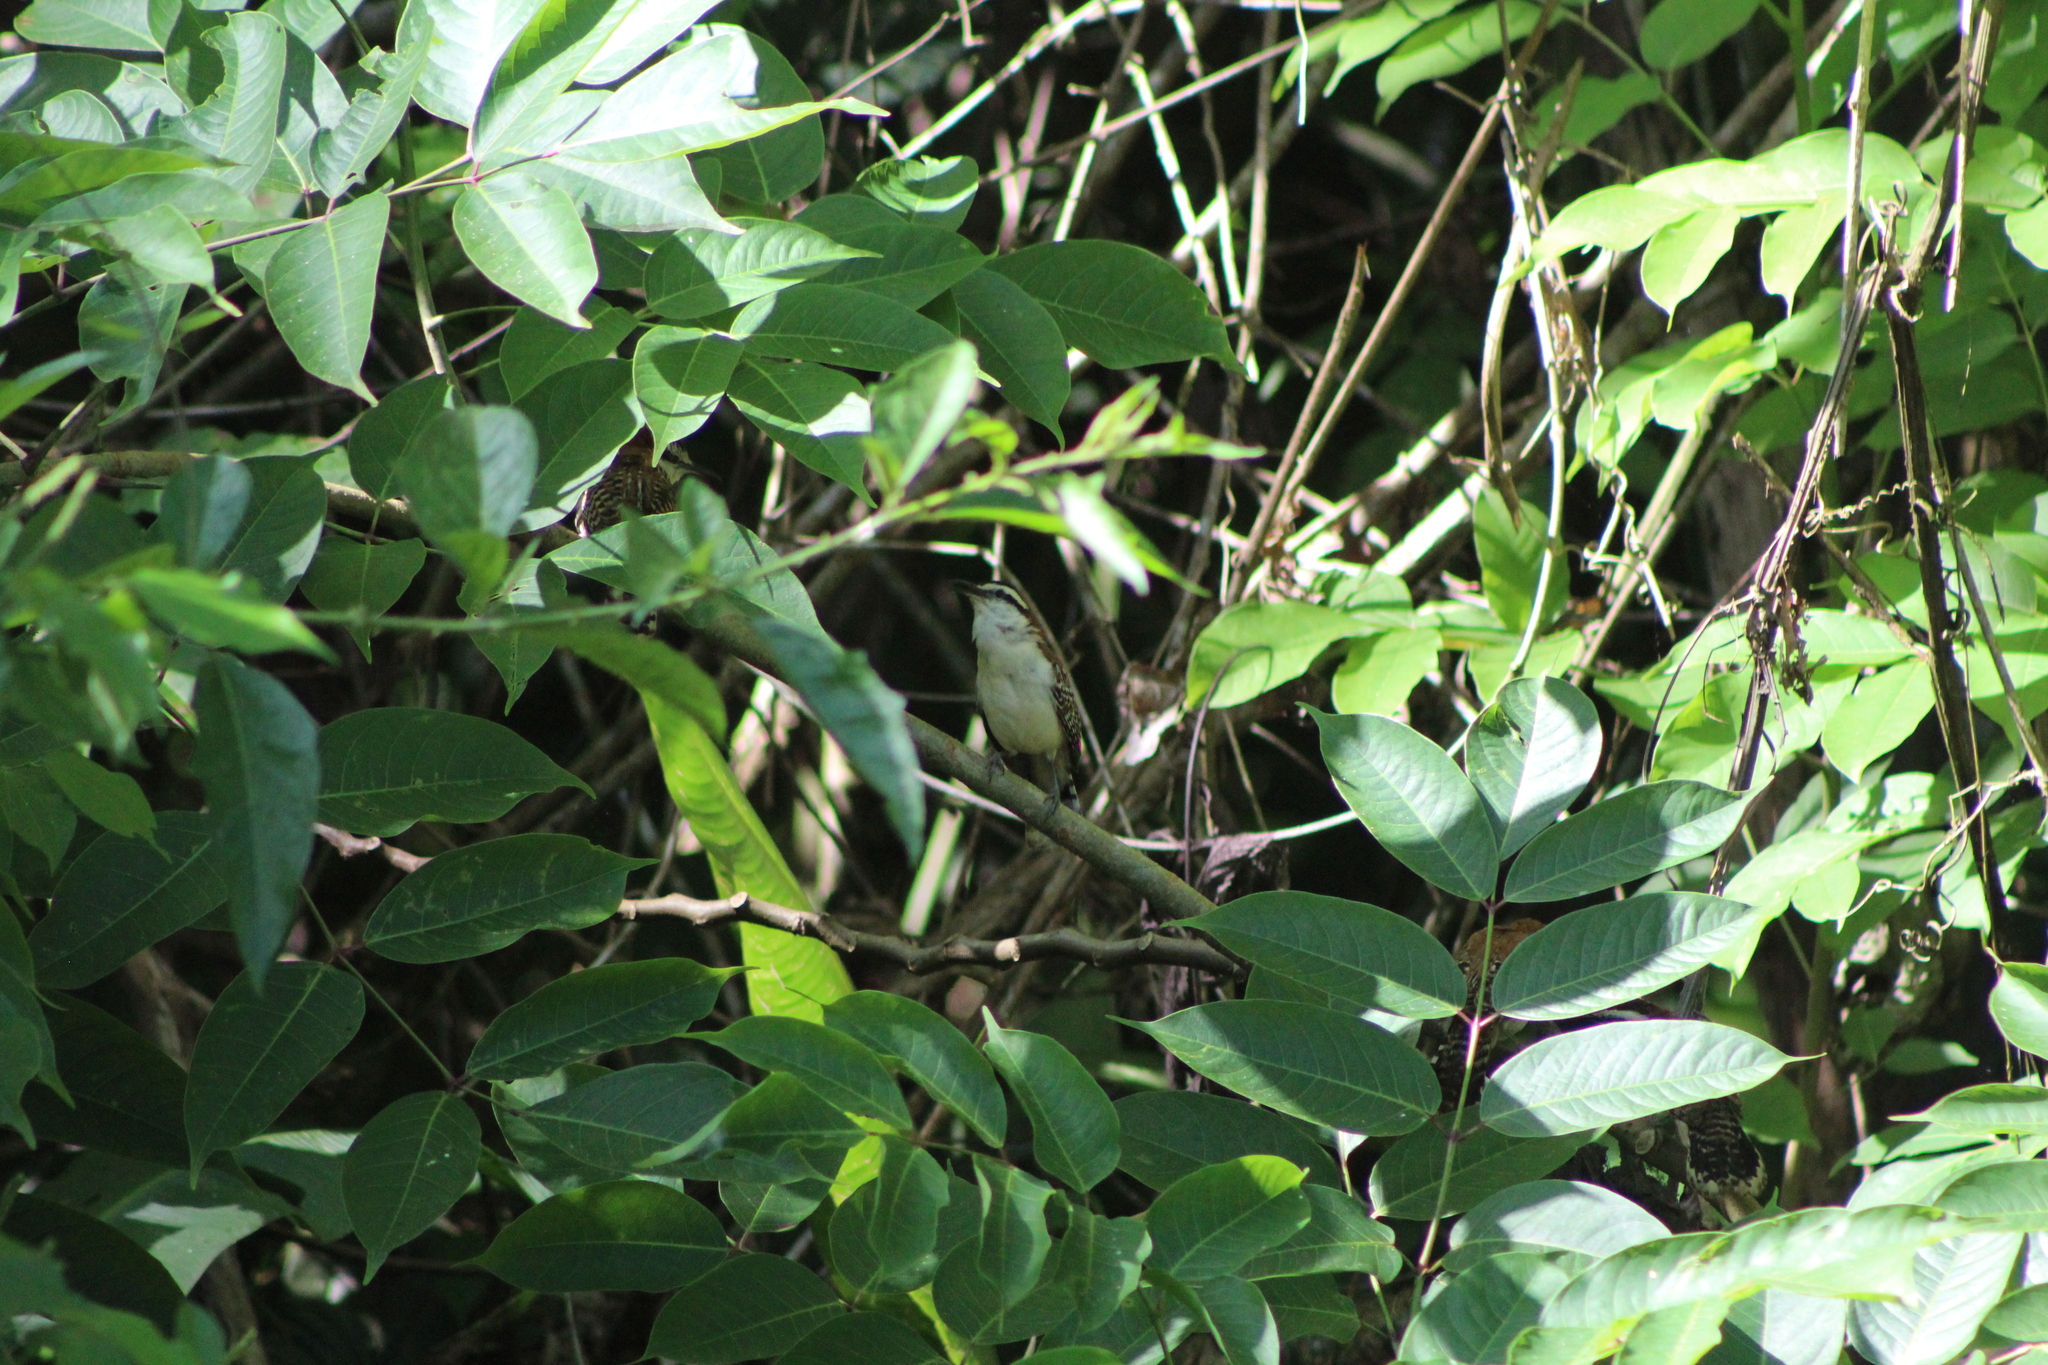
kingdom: Animalia
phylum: Chordata
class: Aves
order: Passeriformes
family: Troglodytidae
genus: Campylorhynchus
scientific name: Campylorhynchus rufinucha
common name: Rufous-naped wren
